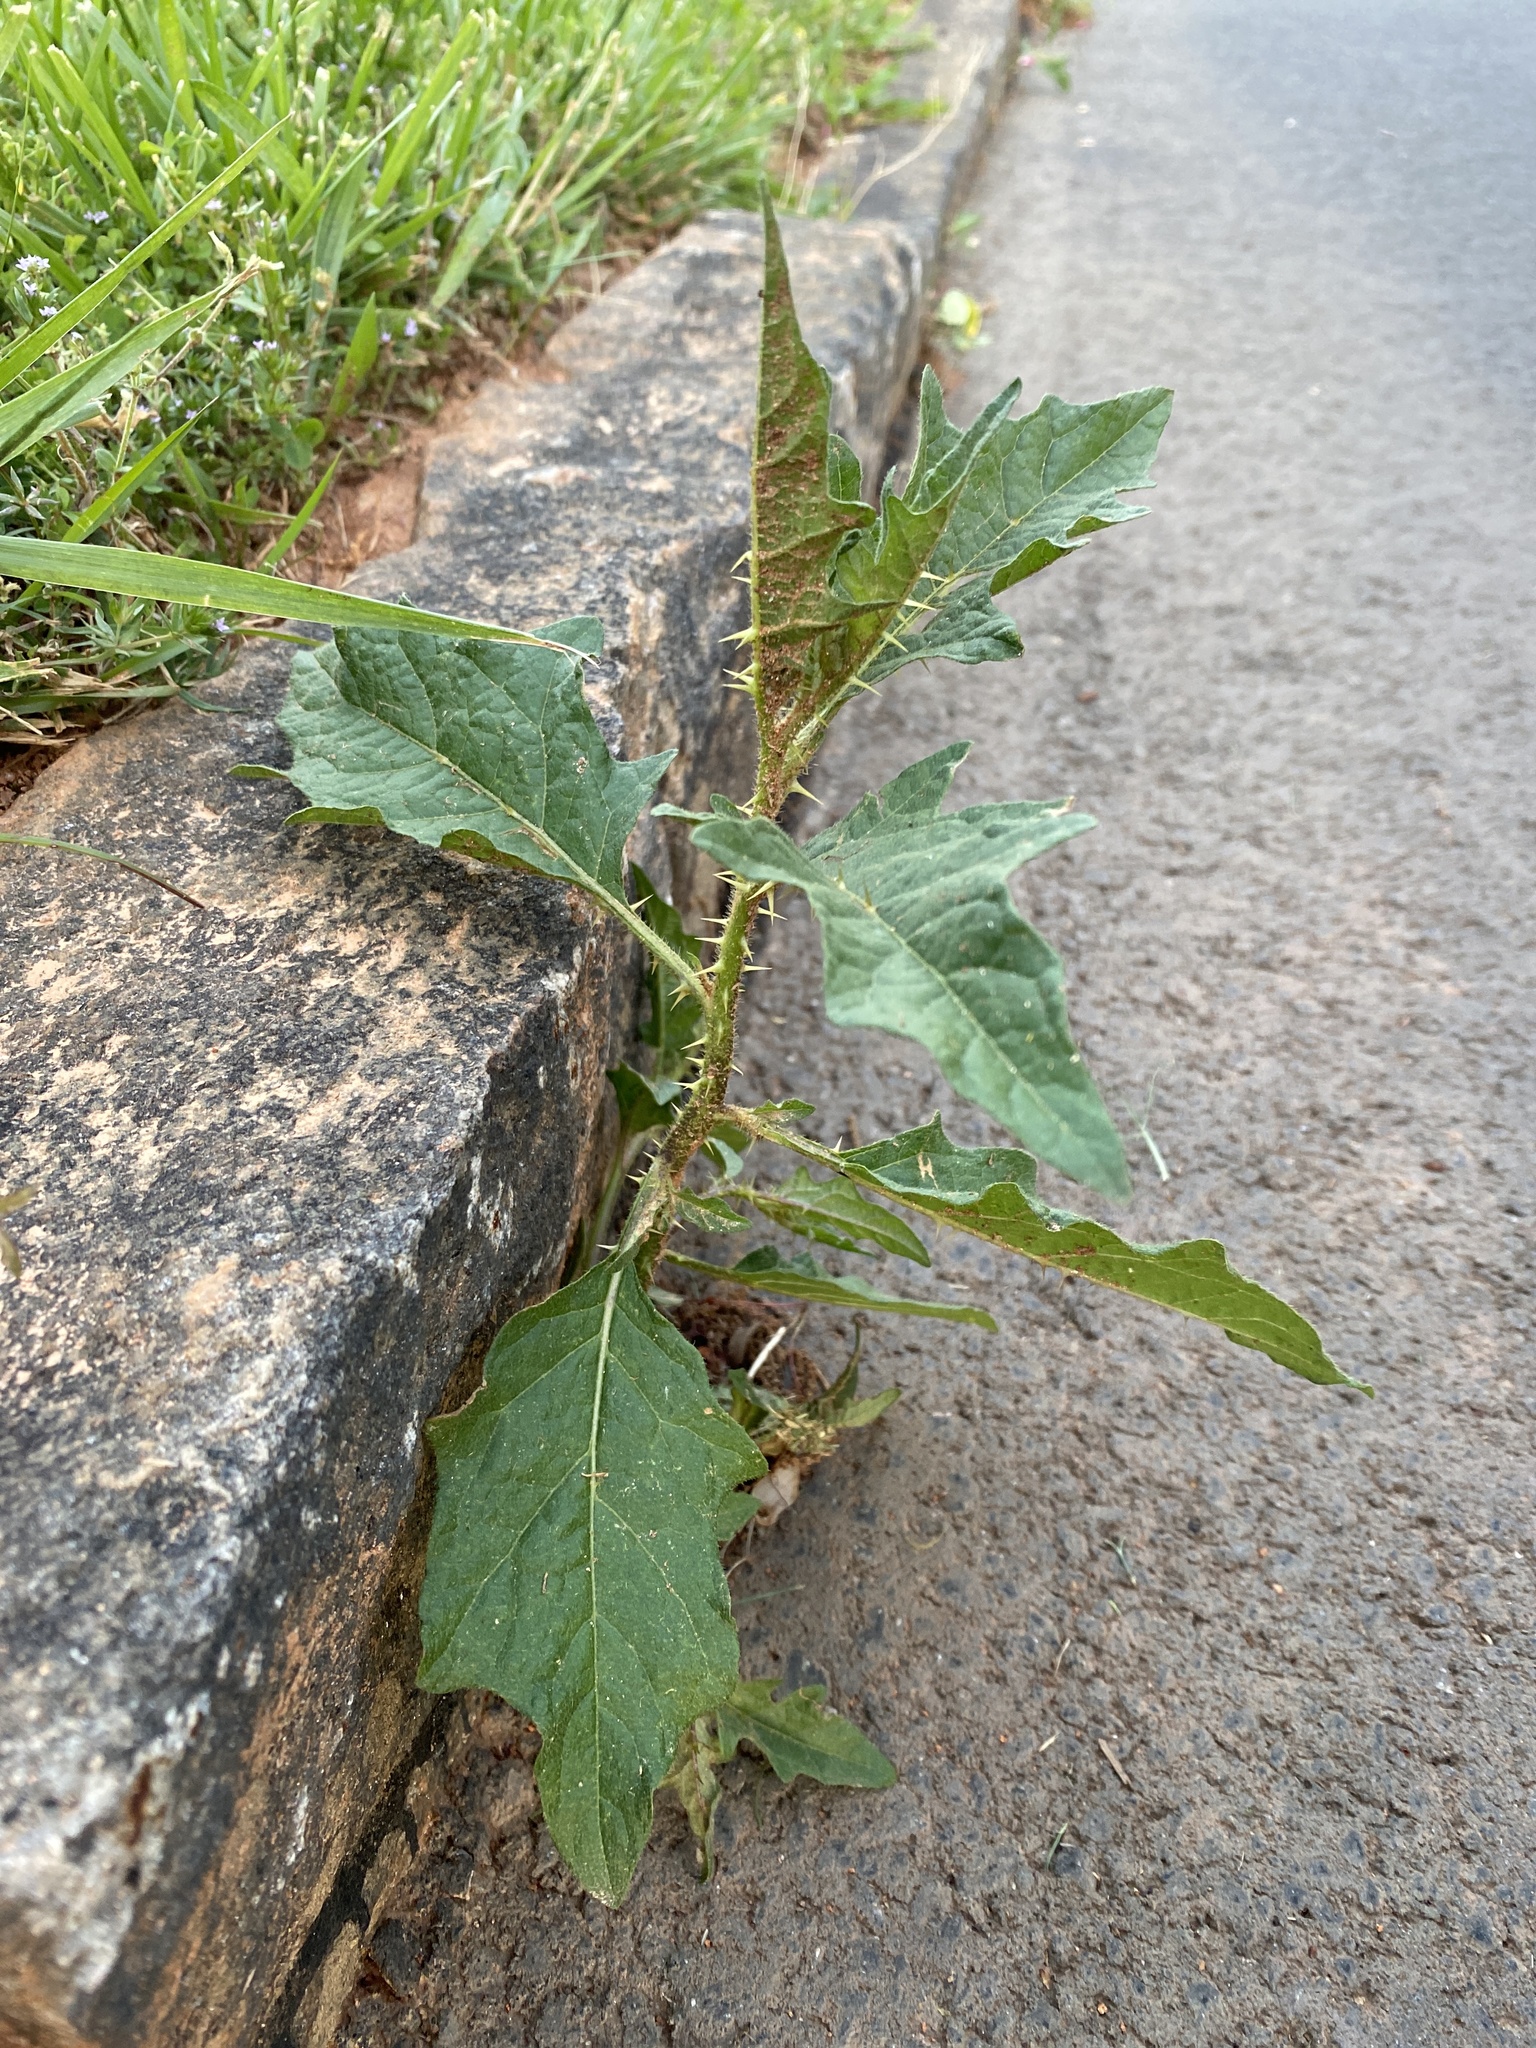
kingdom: Plantae
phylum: Tracheophyta
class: Magnoliopsida
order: Solanales
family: Solanaceae
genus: Solanum
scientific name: Solanum carolinense
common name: Horse-nettle
